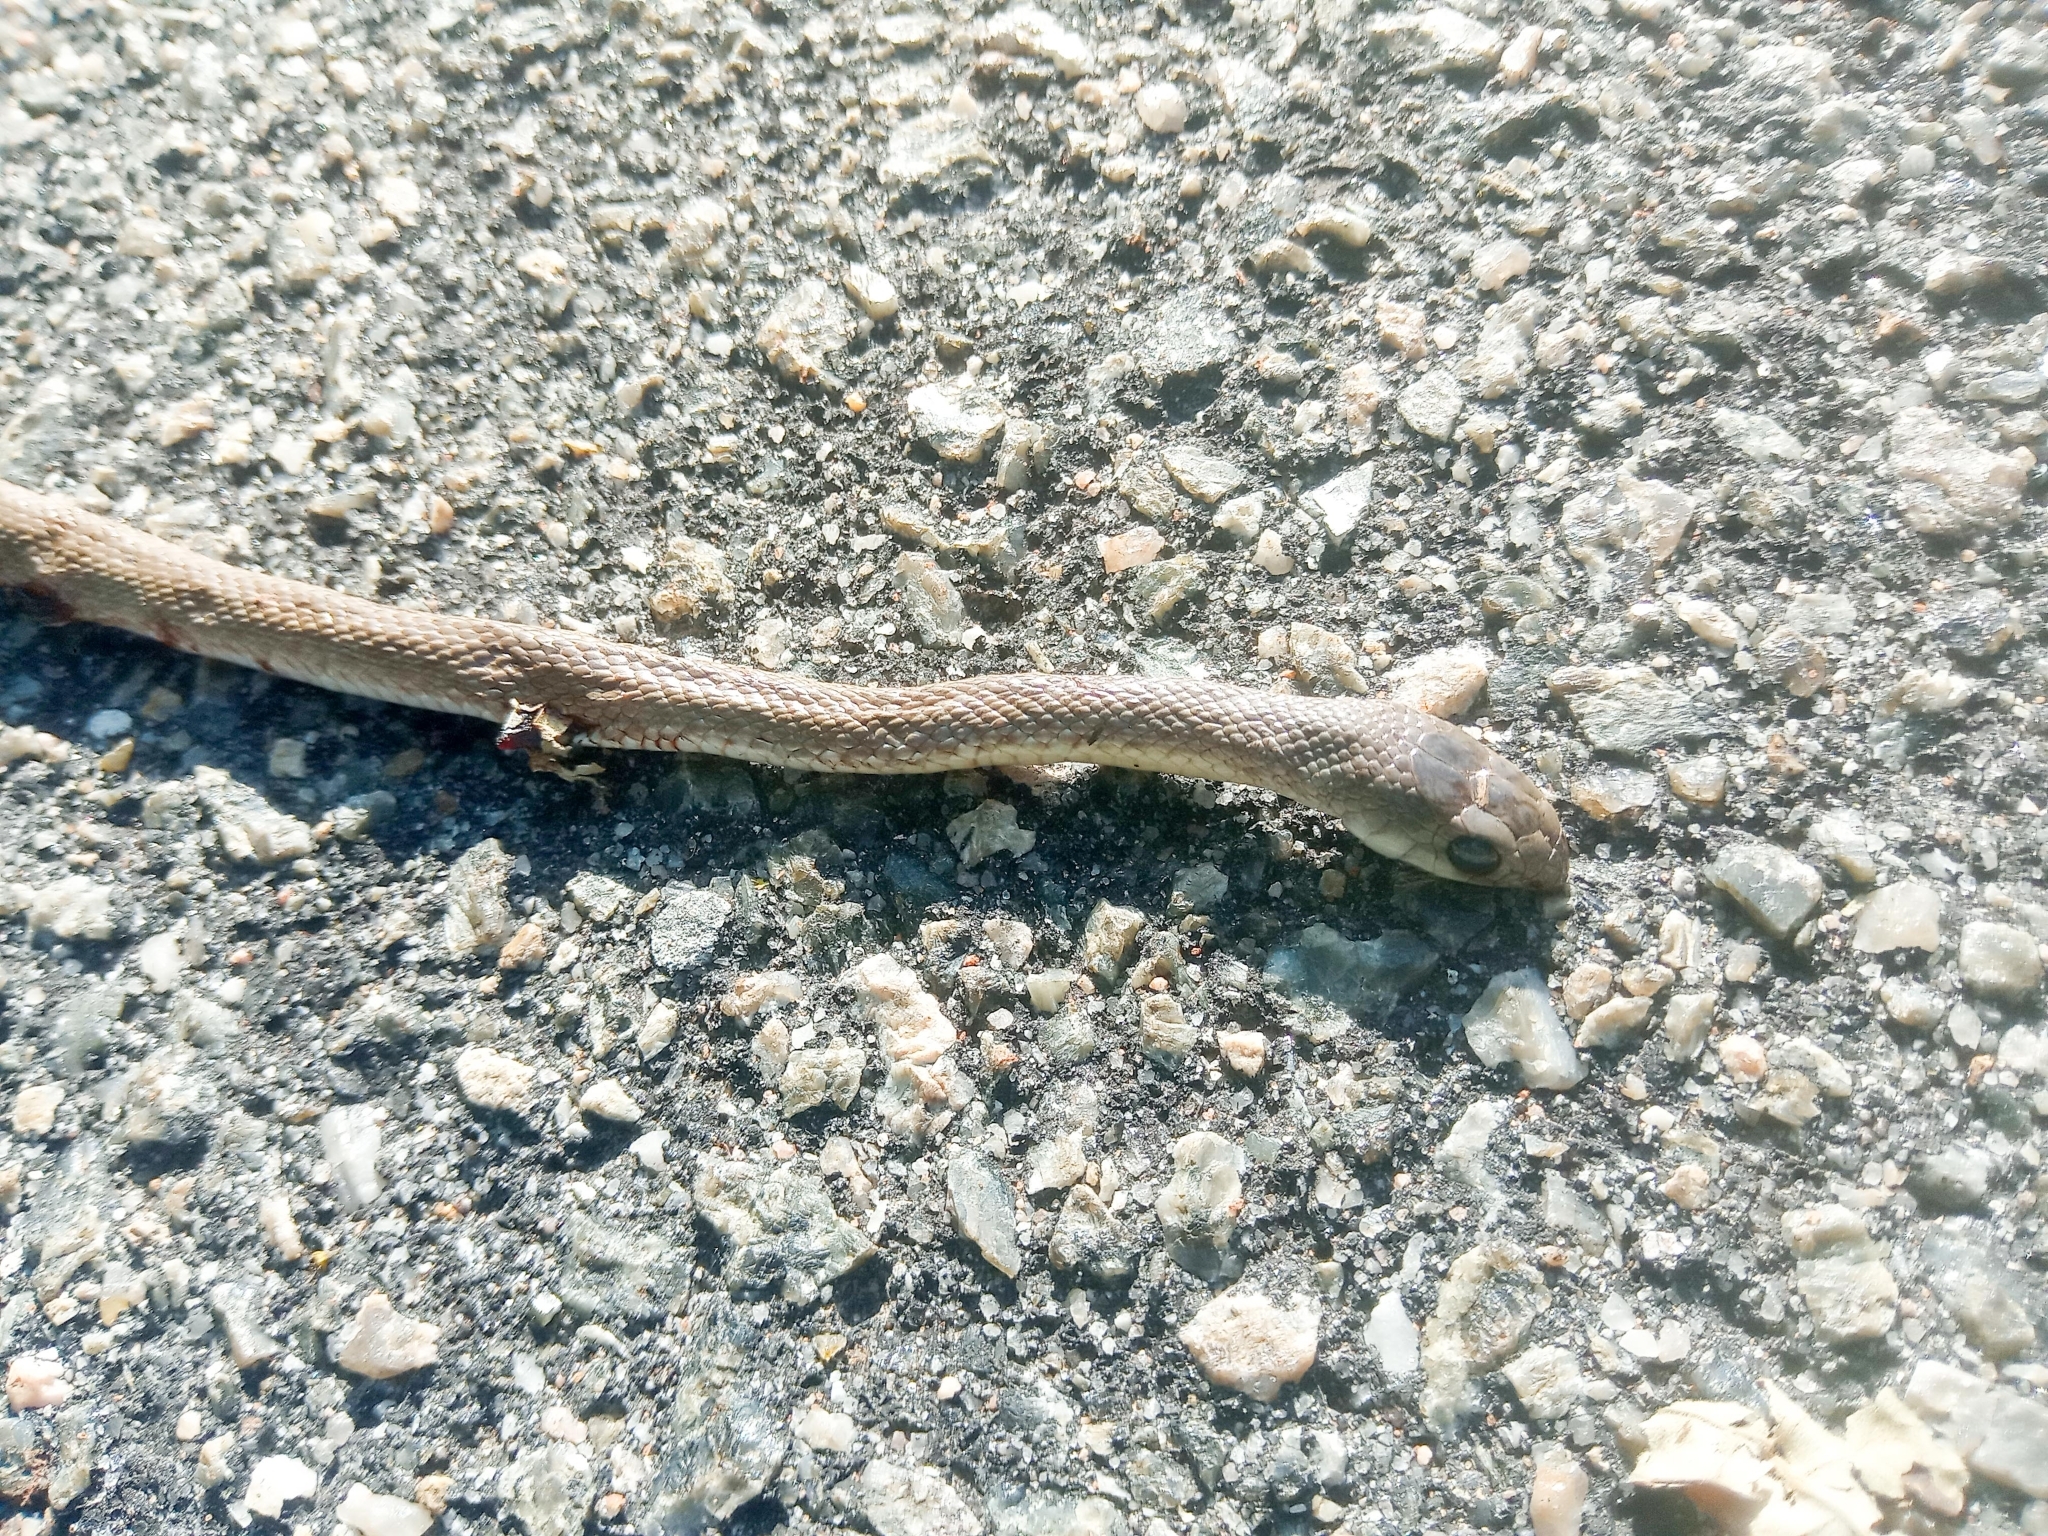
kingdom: Animalia
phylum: Chordata
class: Squamata
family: Psammophiidae
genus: Rhamphiophis
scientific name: Rhamphiophis oxyrhynchus
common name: Western beaked snake
